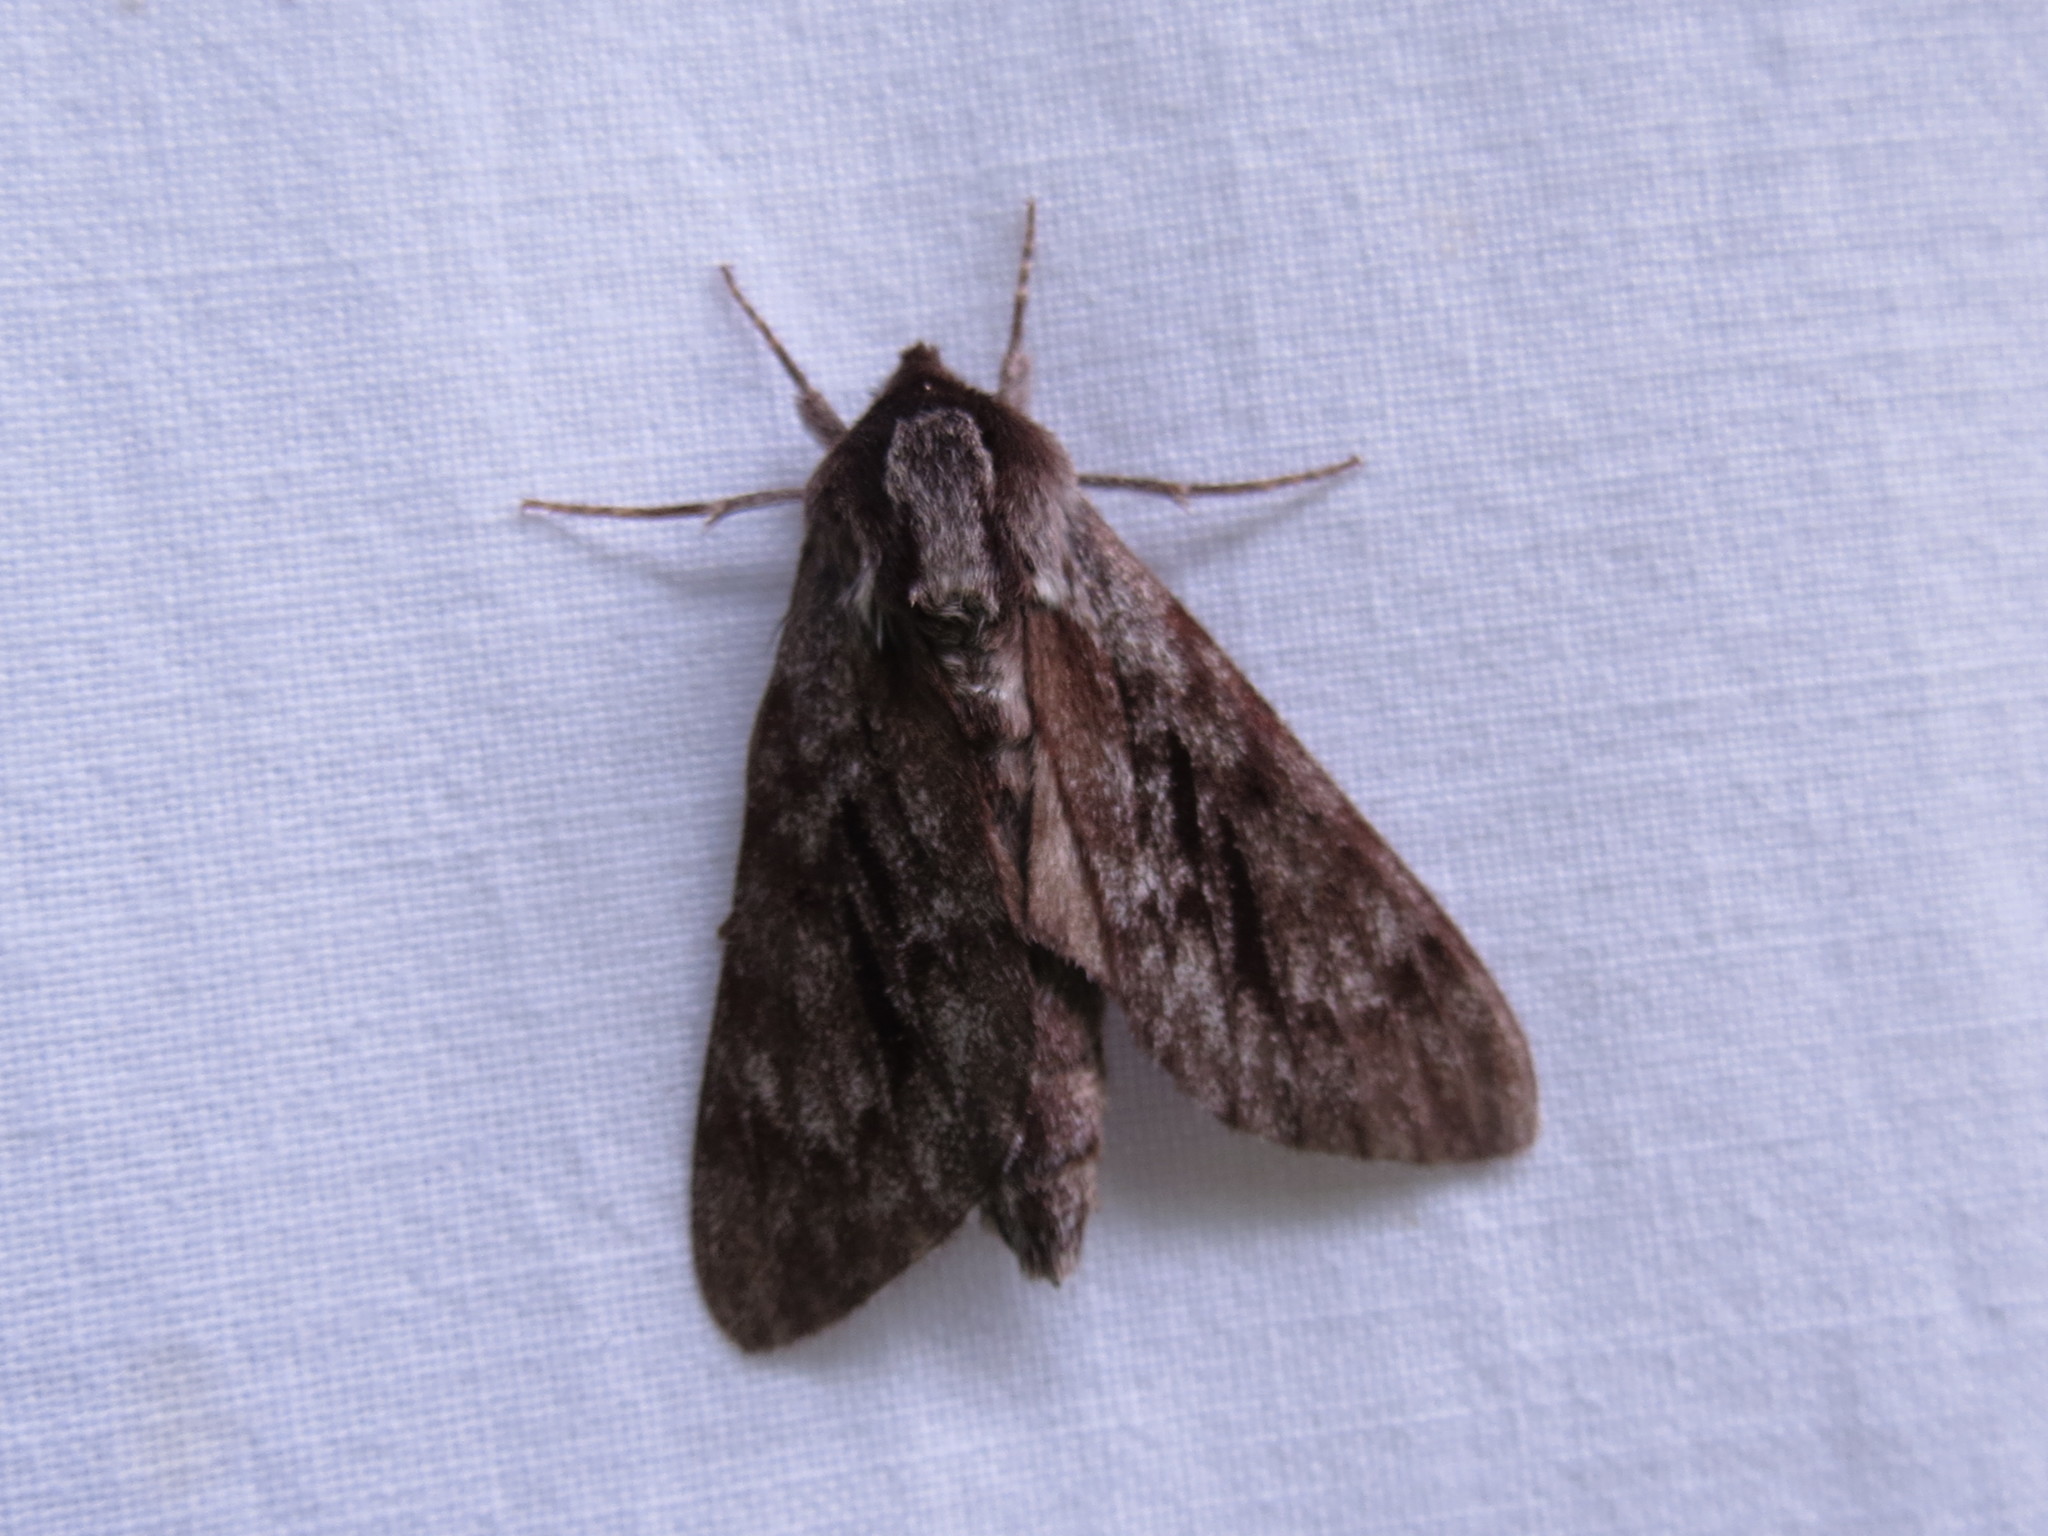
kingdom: Animalia
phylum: Arthropoda
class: Insecta
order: Lepidoptera
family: Sphingidae
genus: Lapara
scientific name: Lapara bombycoides
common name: Northern pine sphinx
